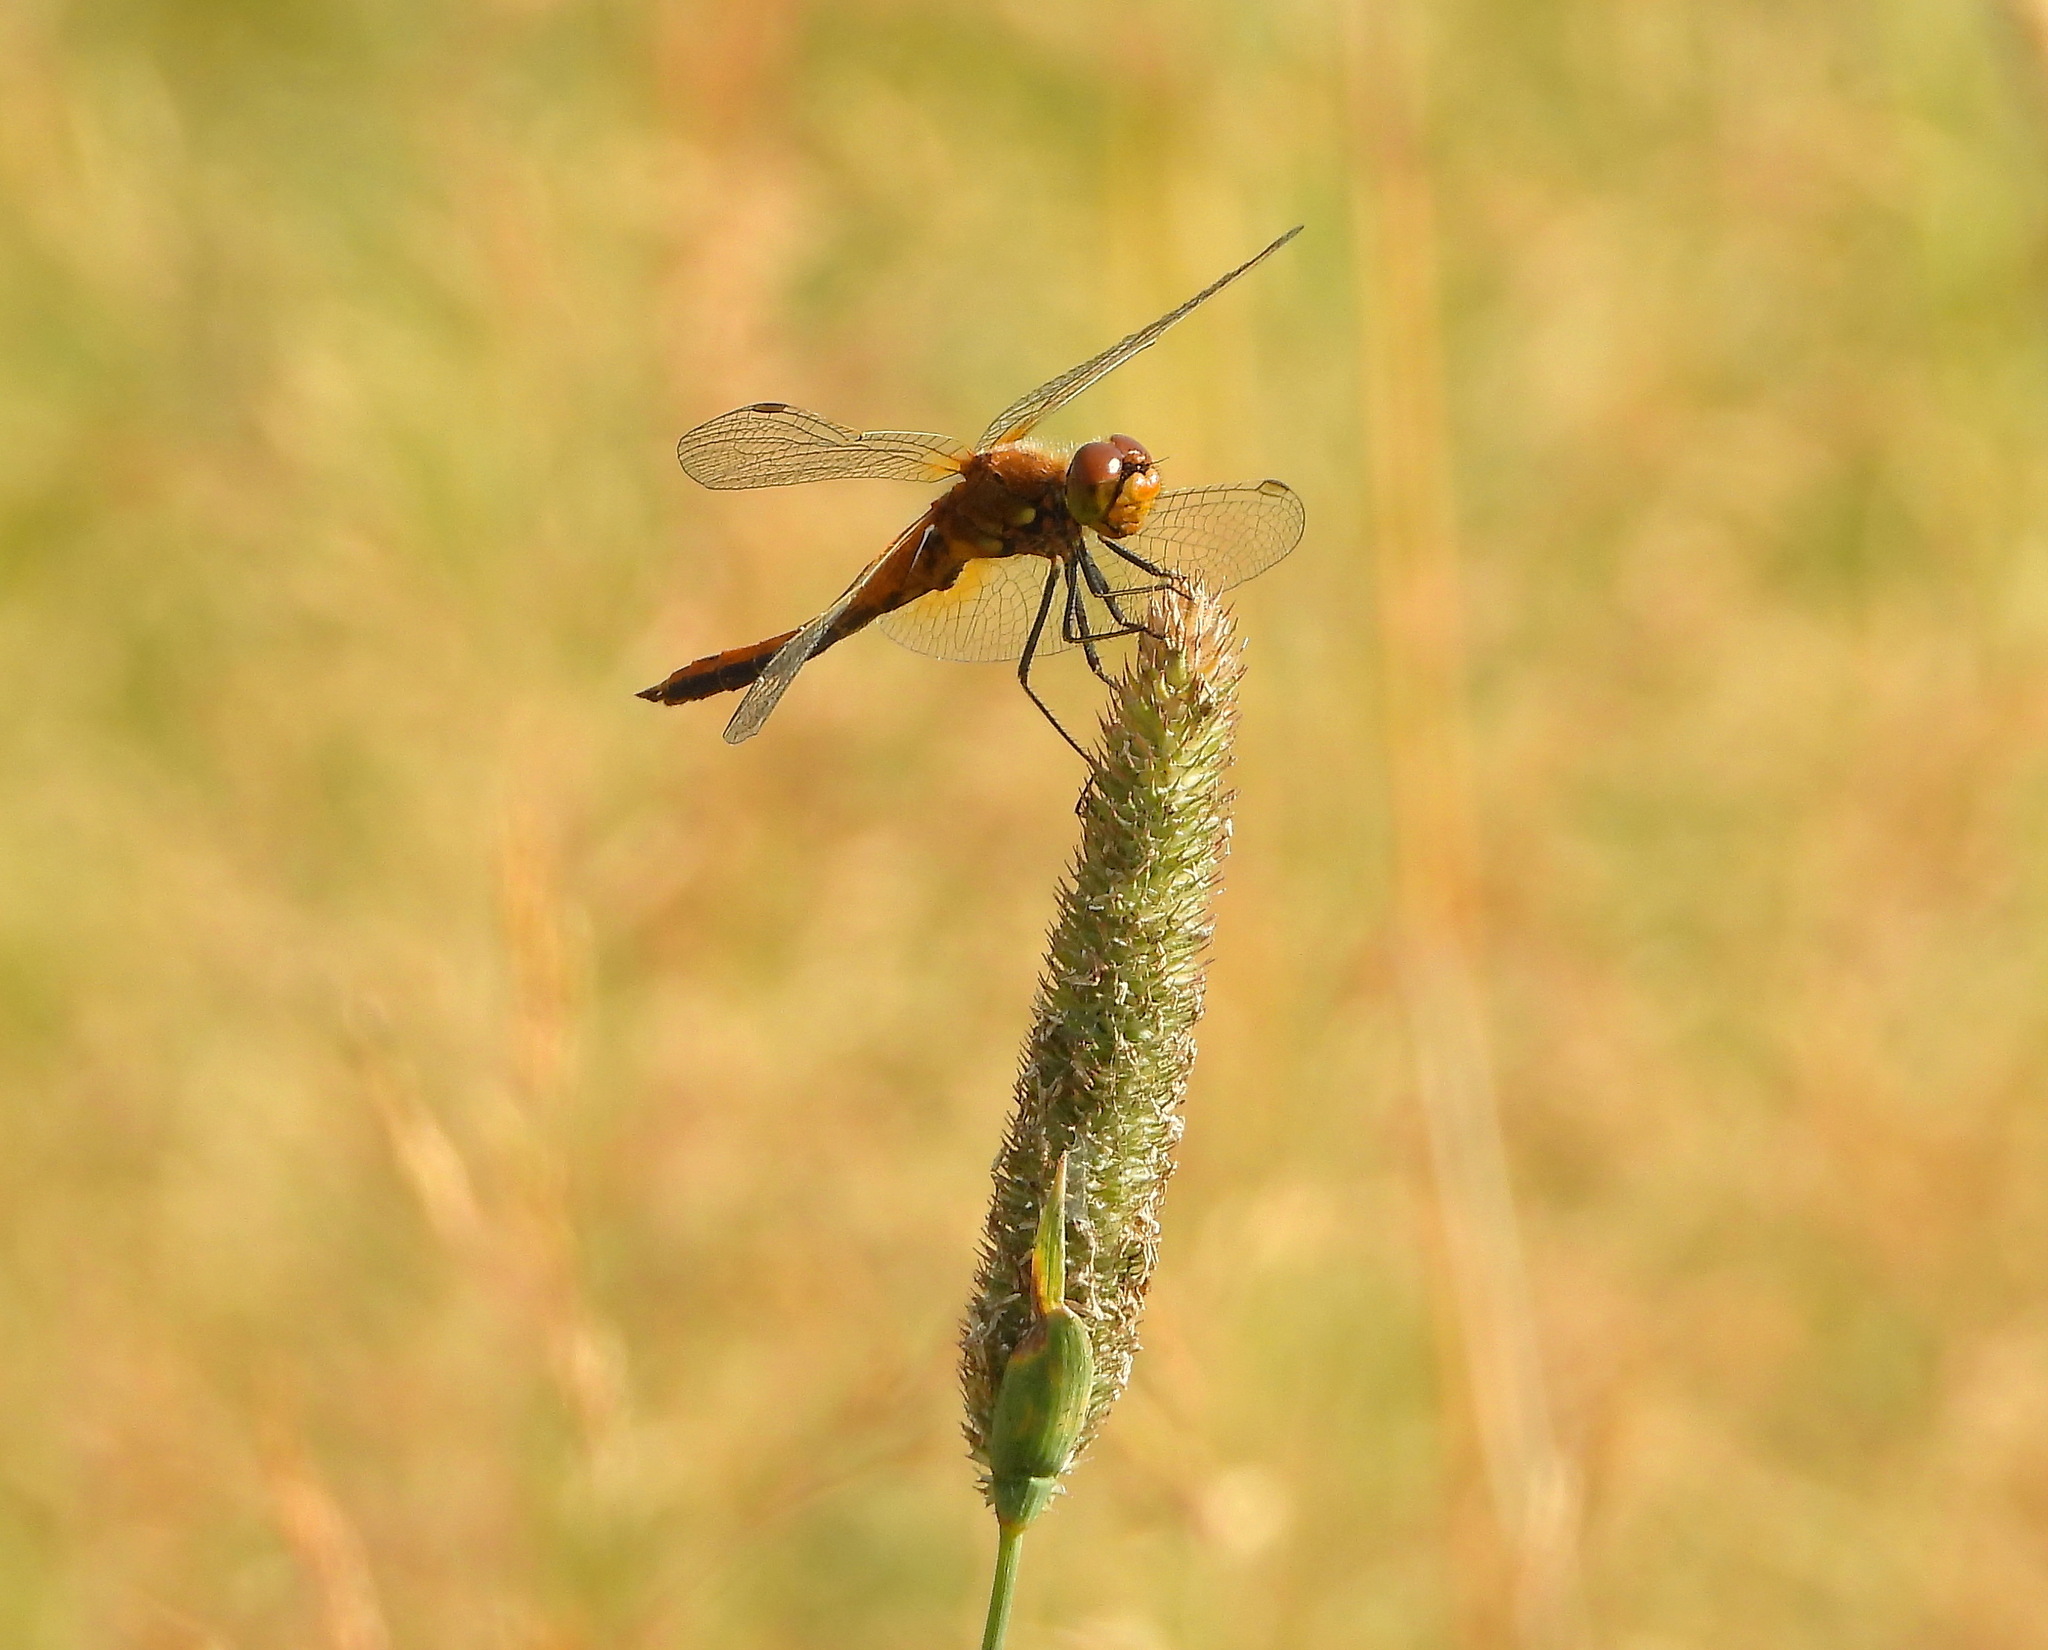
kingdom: Animalia
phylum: Arthropoda
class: Insecta
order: Odonata
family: Libellulidae
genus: Sympetrum
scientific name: Sympetrum flaveolum
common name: Yellow-winged darter
